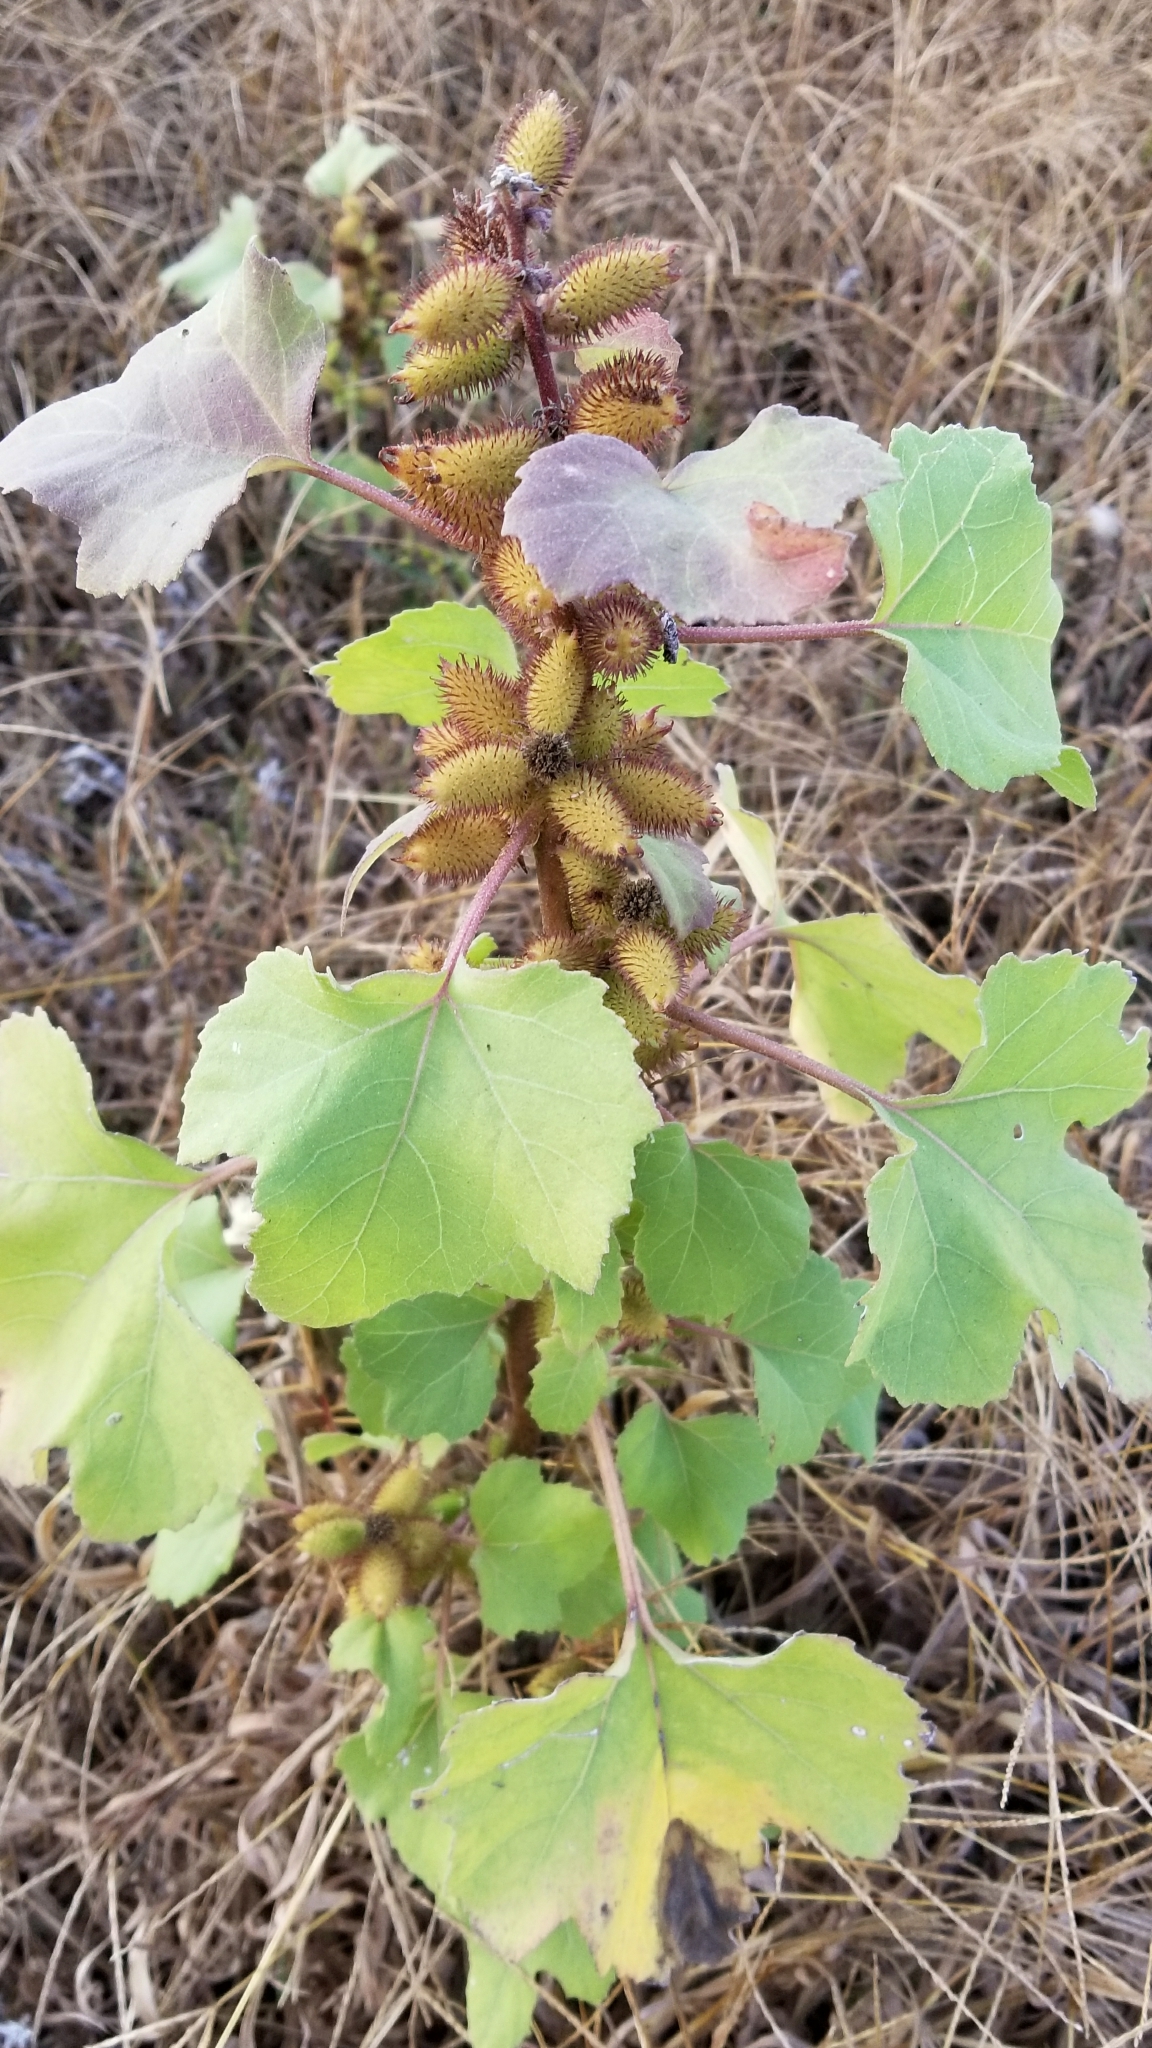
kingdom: Plantae
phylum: Tracheophyta
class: Magnoliopsida
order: Asterales
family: Asteraceae
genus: Xanthium
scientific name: Xanthium strumarium
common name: Rough cocklebur
